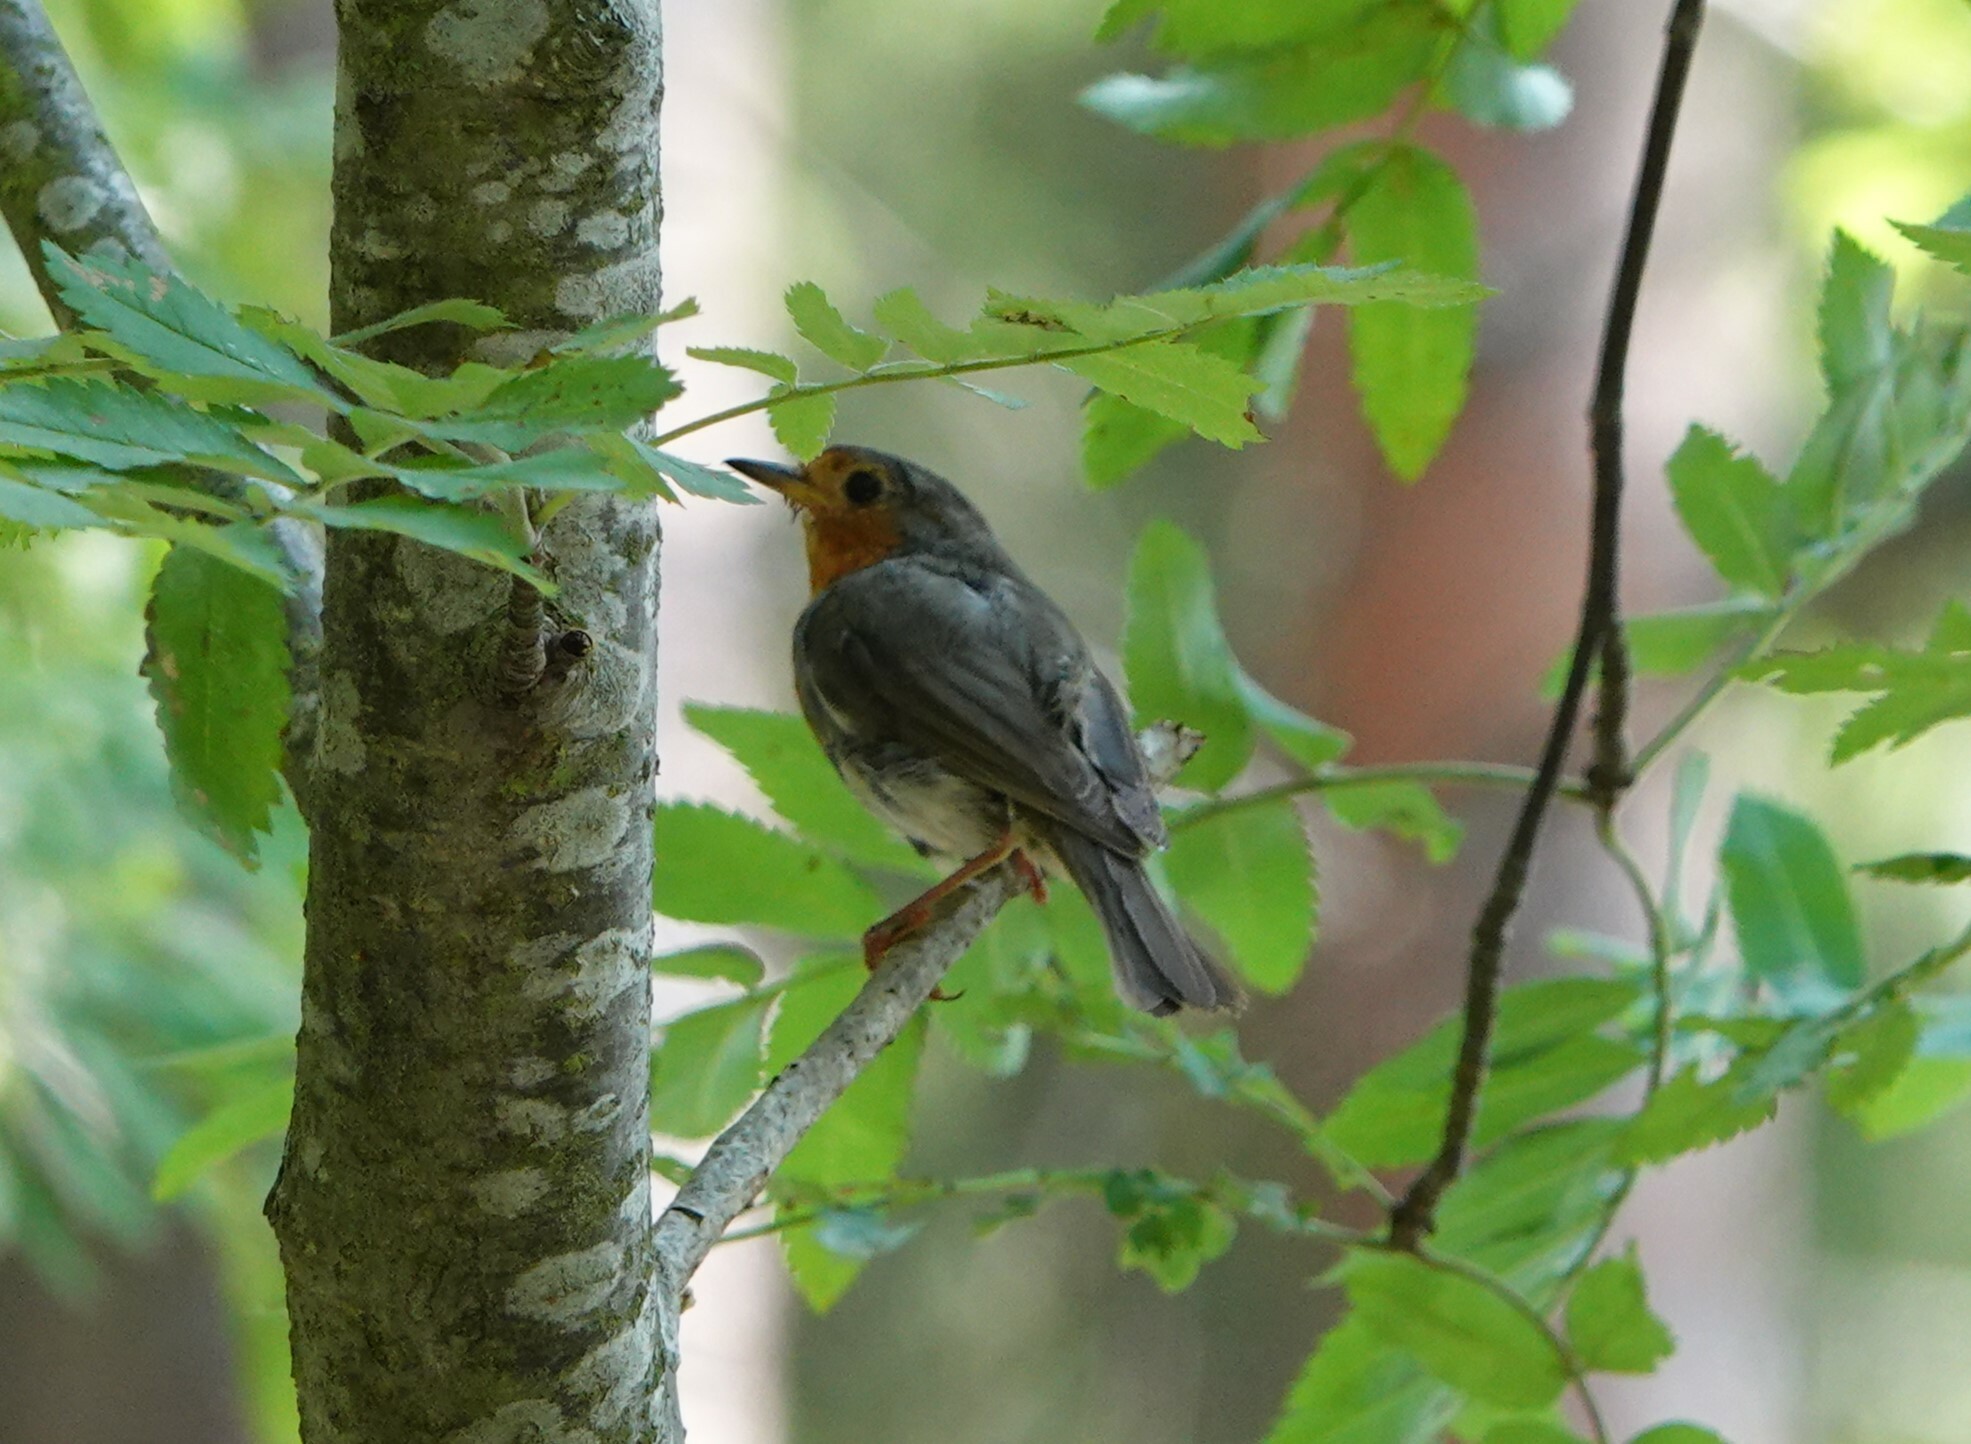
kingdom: Animalia
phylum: Chordata
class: Aves
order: Passeriformes
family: Muscicapidae
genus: Erithacus
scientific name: Erithacus rubecula
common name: European robin
